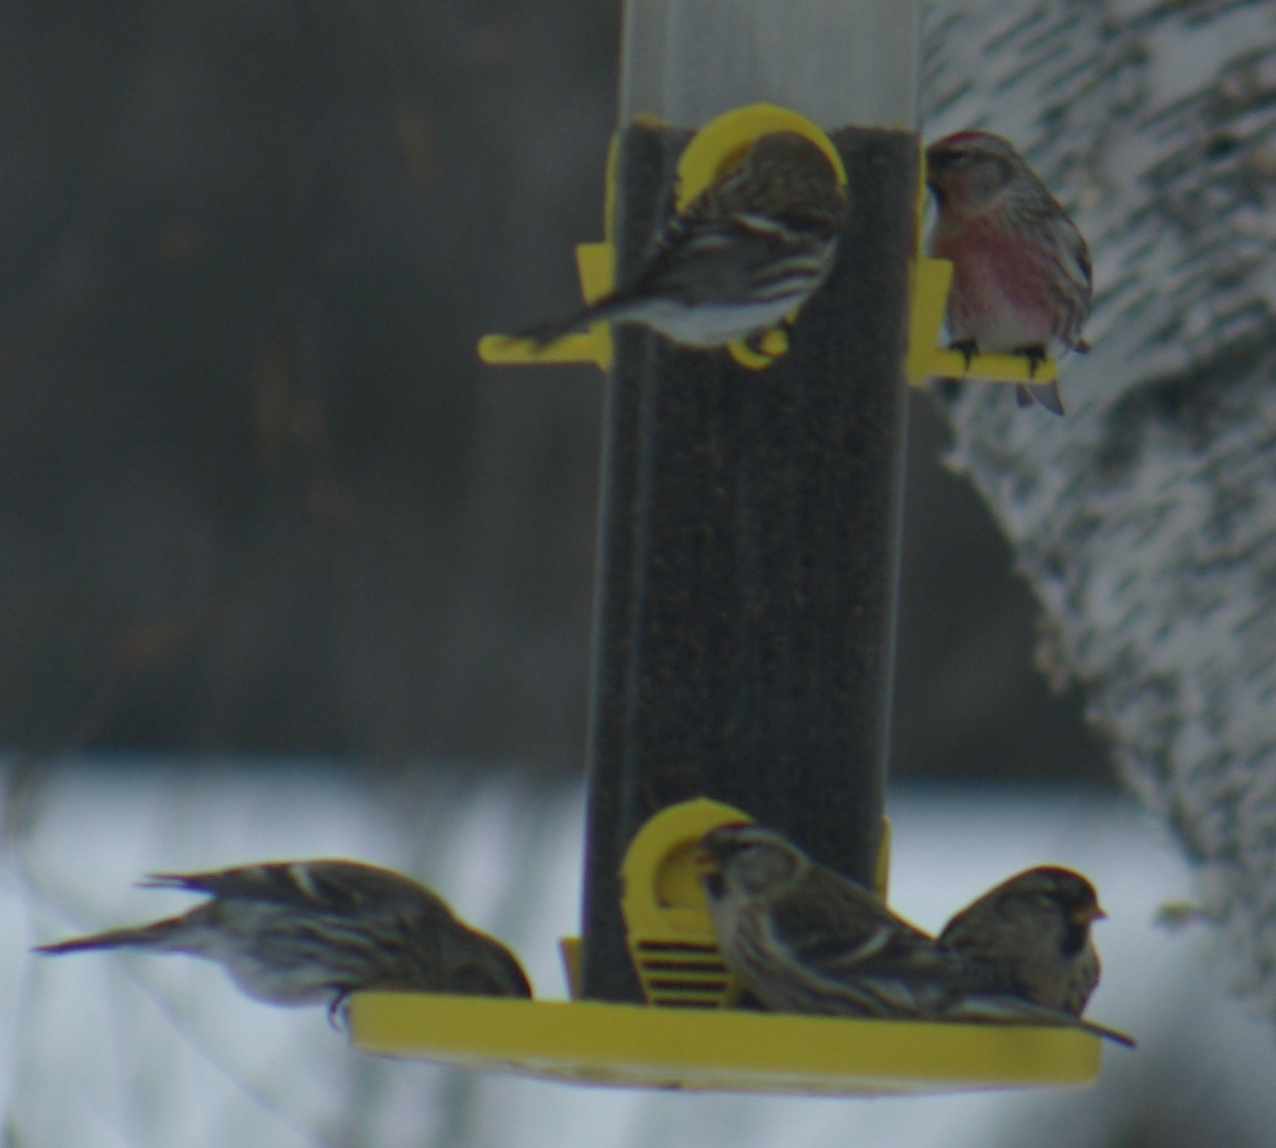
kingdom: Animalia
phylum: Chordata
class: Aves
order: Passeriformes
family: Fringillidae
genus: Acanthis
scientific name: Acanthis flammea
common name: Common redpoll
